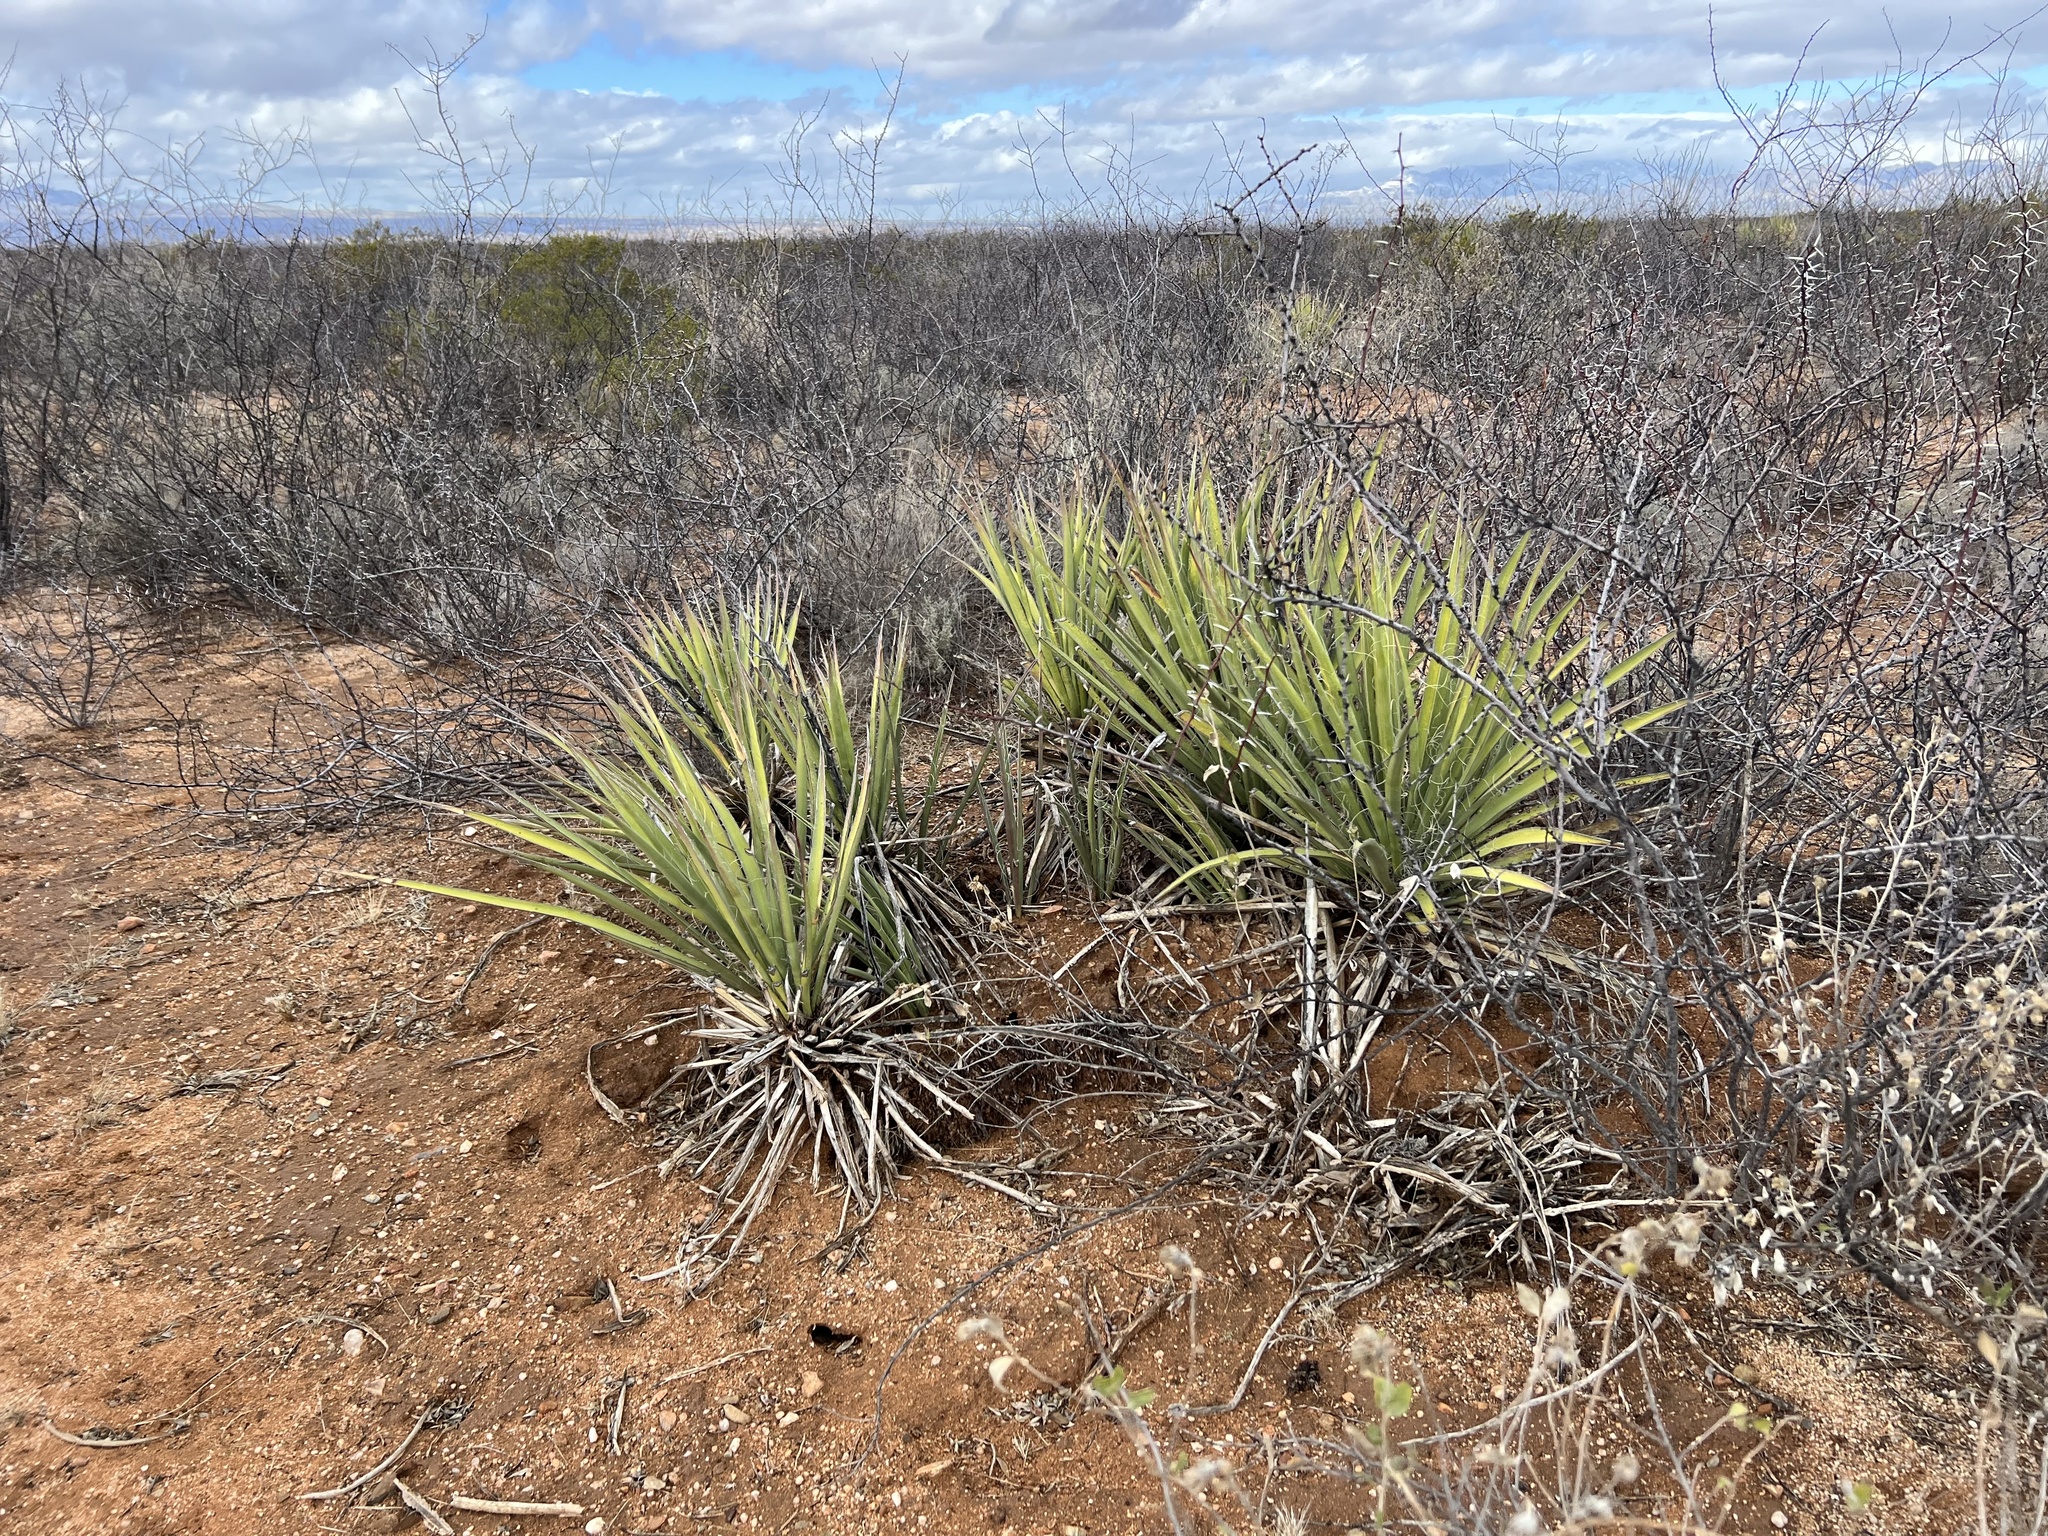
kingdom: Plantae
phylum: Tracheophyta
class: Liliopsida
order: Asparagales
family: Asparagaceae
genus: Yucca
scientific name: Yucca baccata
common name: Banana yucca
